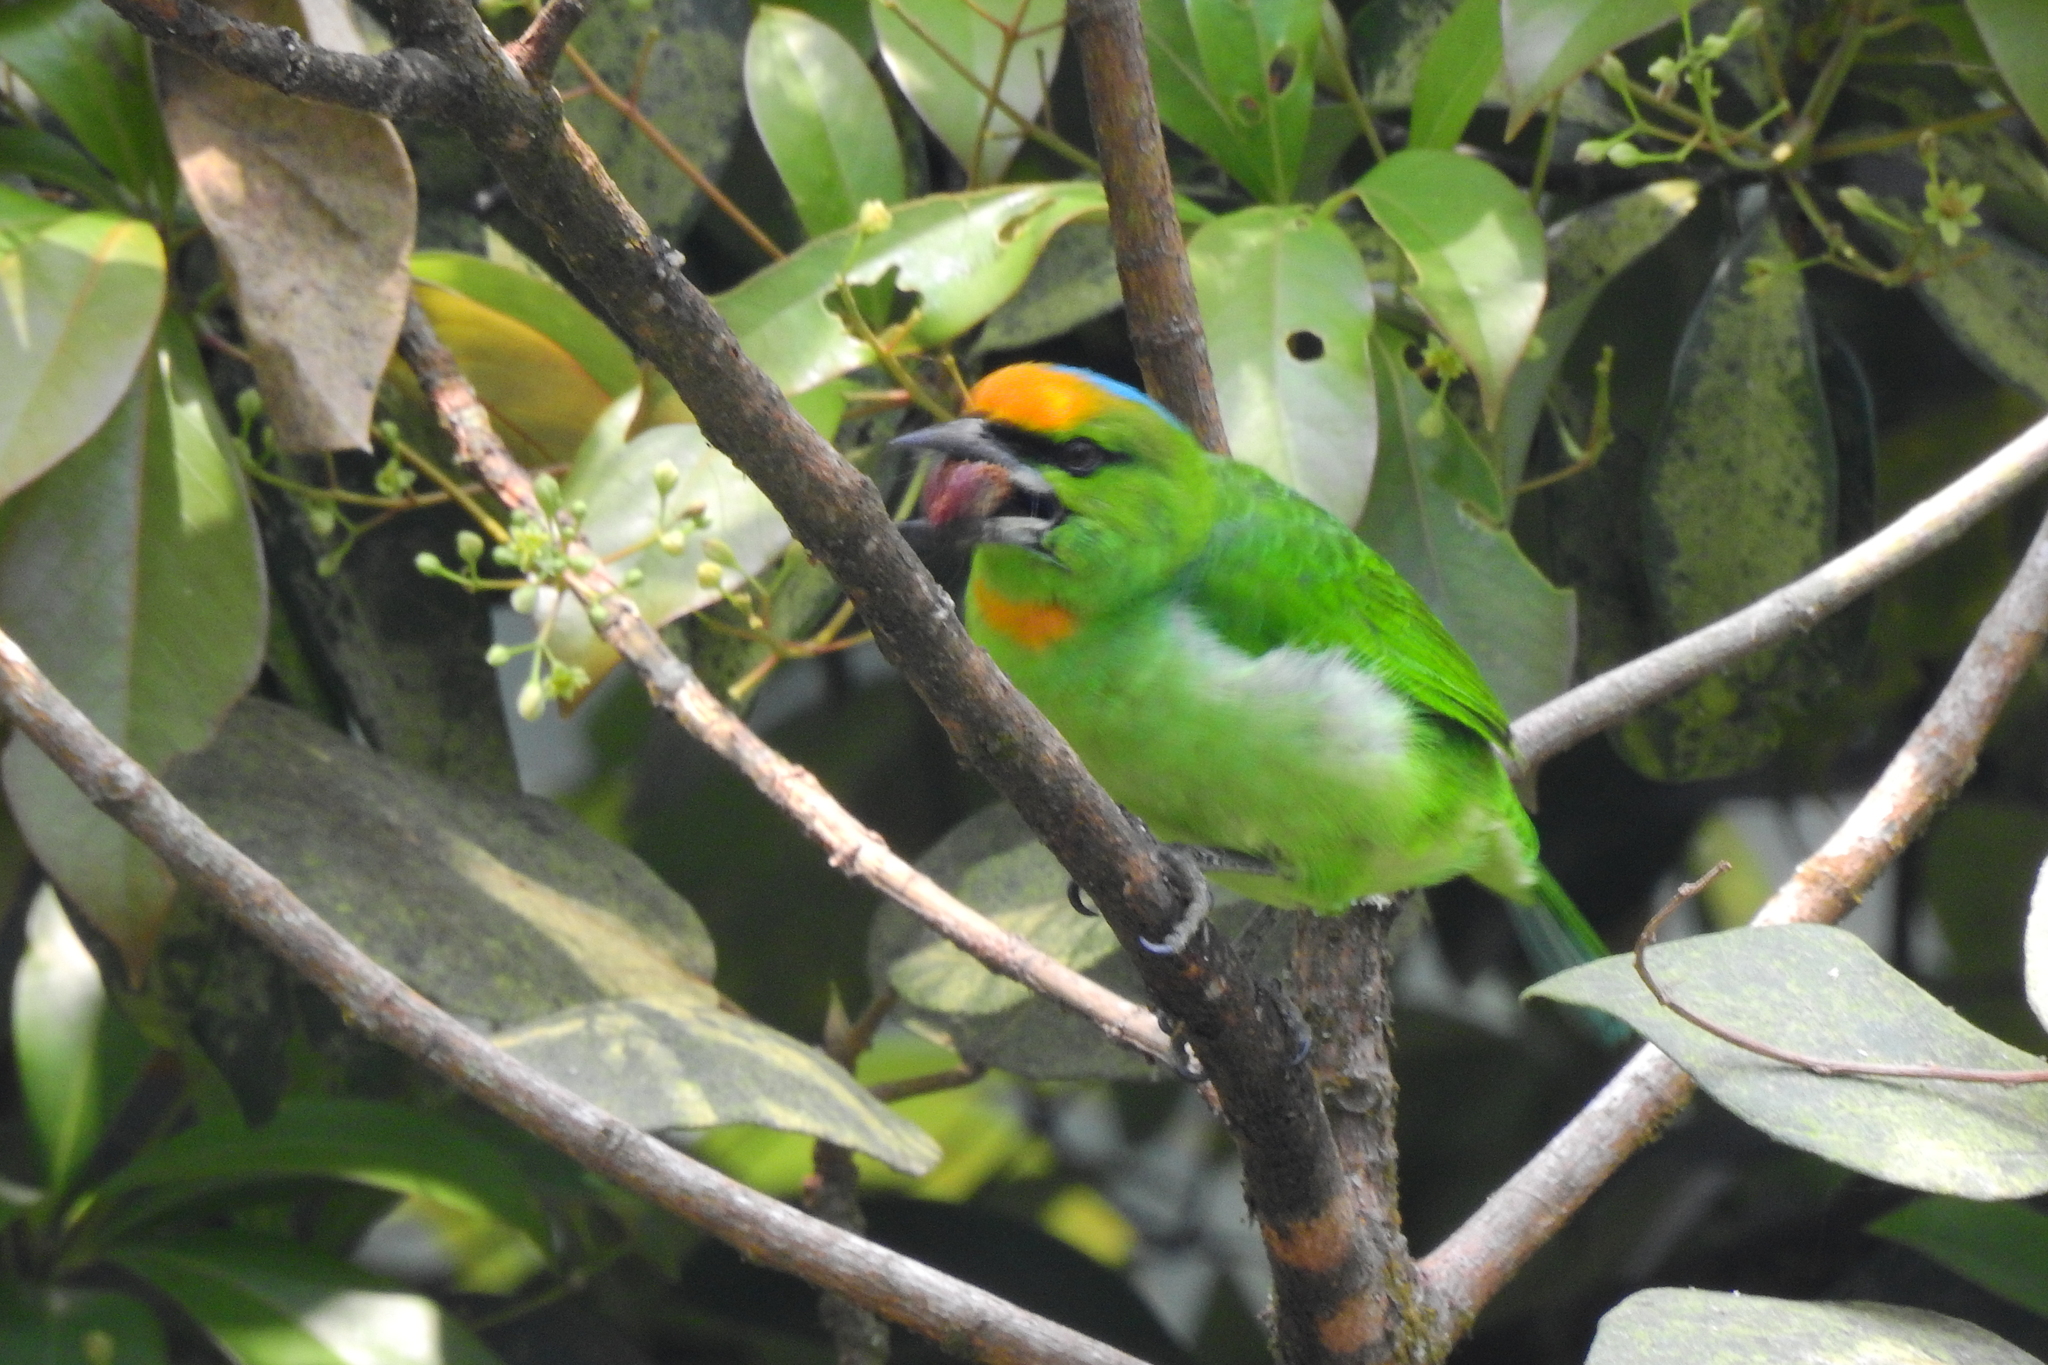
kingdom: Animalia
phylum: Chordata
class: Aves
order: Piciformes
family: Megalaimidae
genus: Psilopogon
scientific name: Psilopogon armillaris
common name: Flame-fronted barbet
